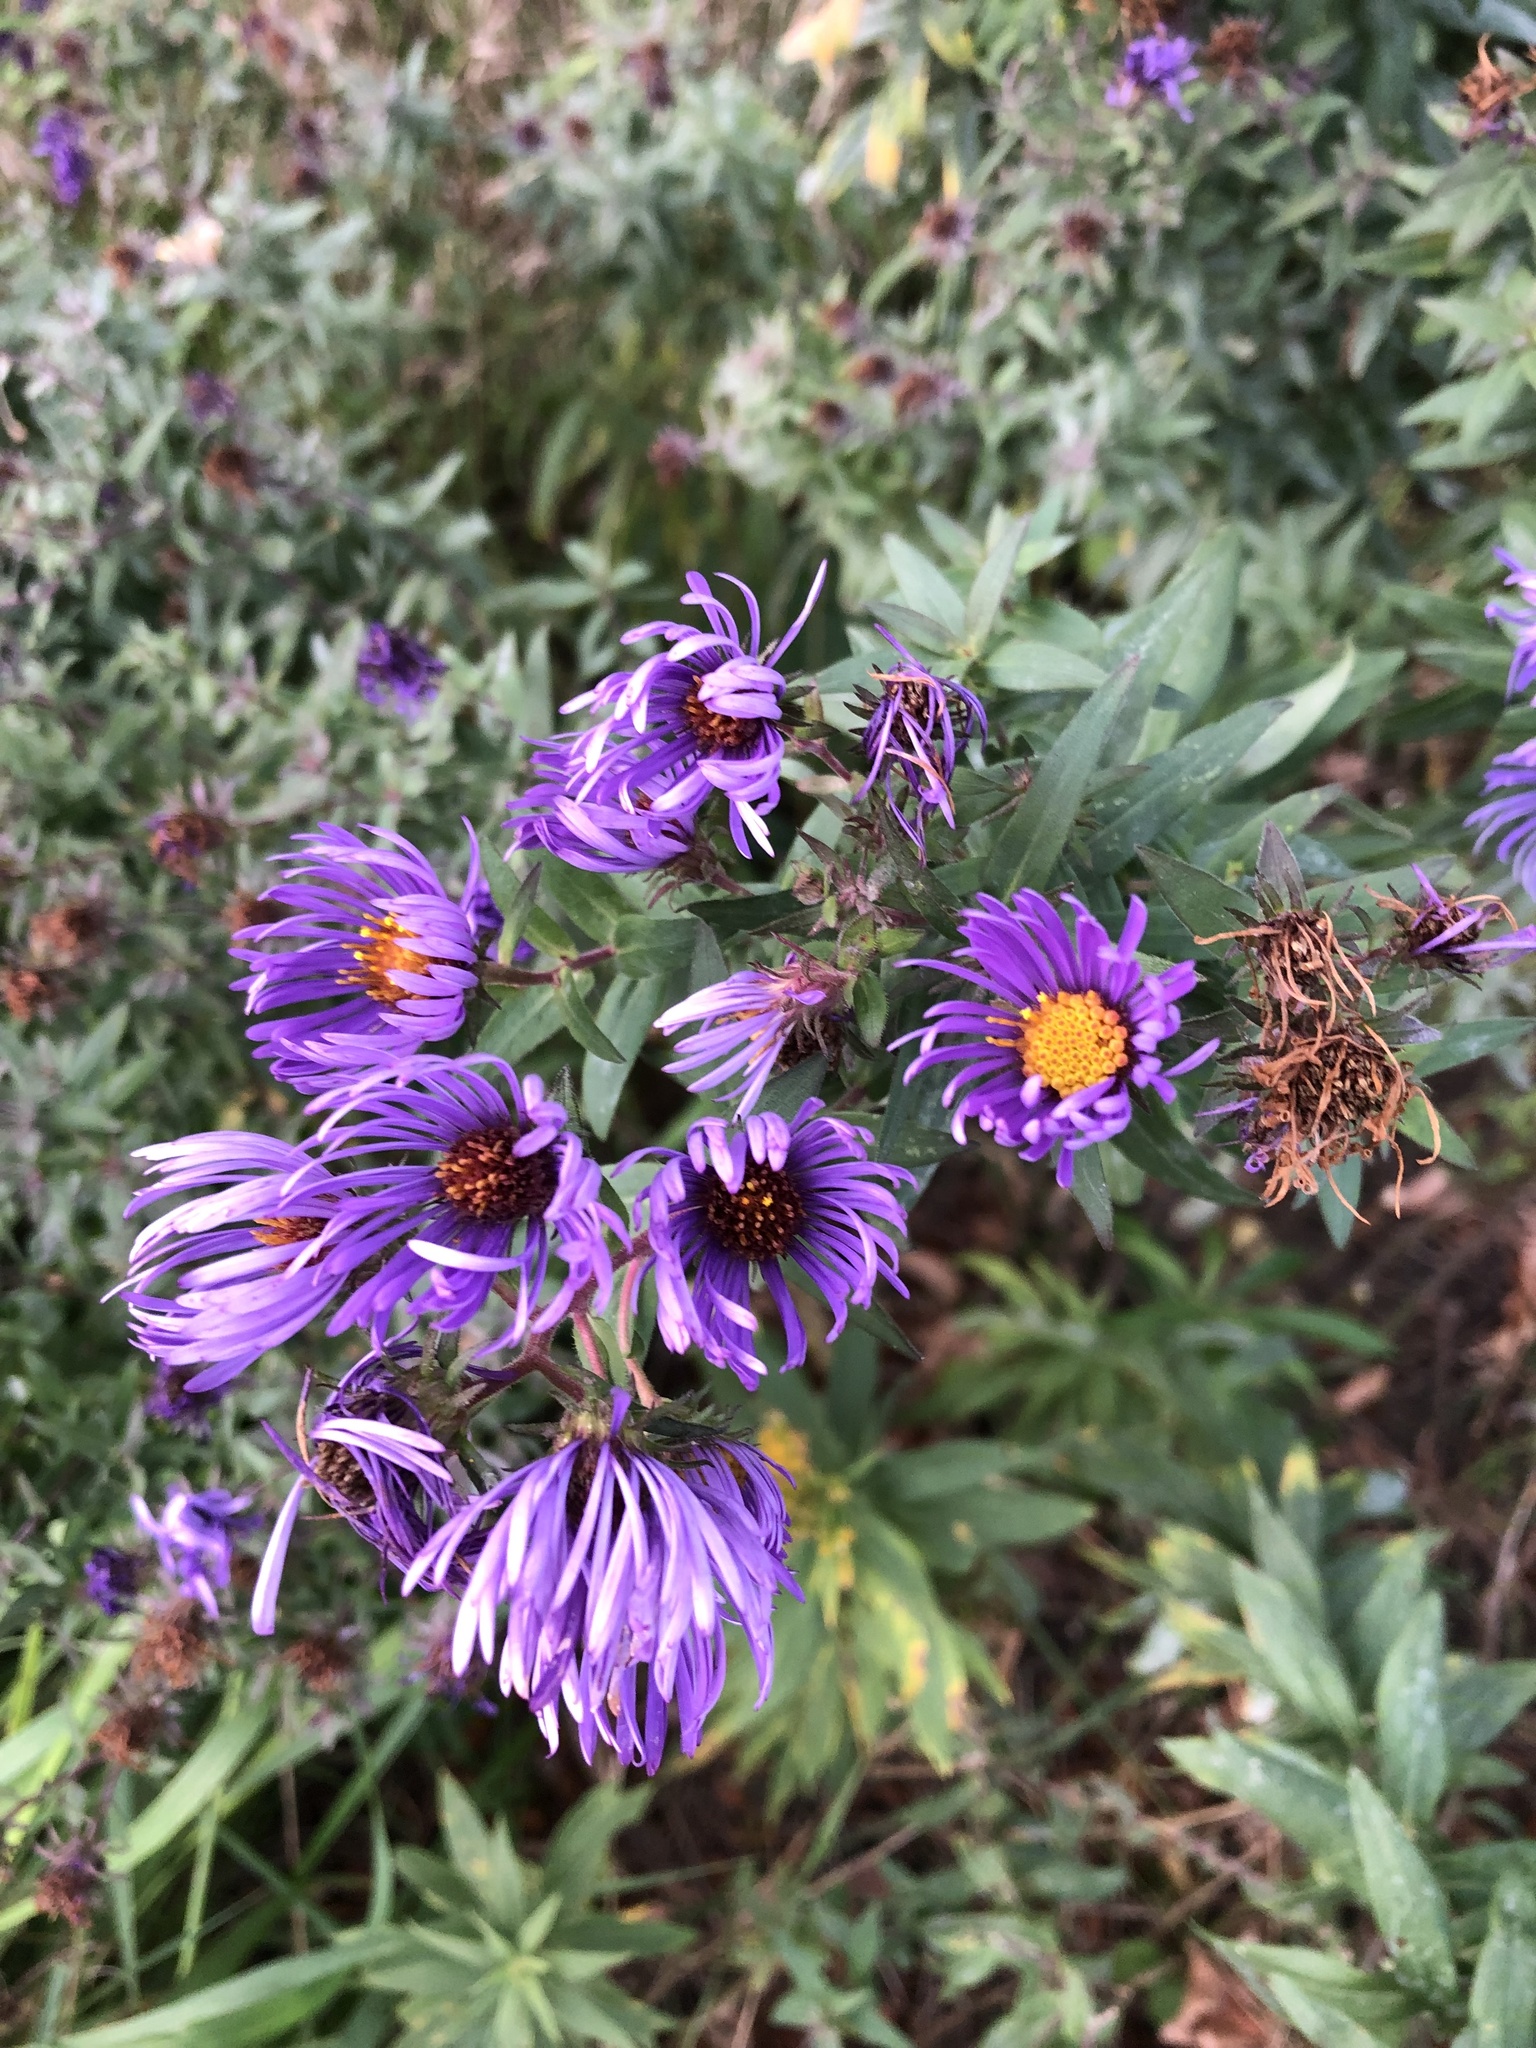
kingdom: Plantae
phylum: Tracheophyta
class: Magnoliopsida
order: Asterales
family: Asteraceae
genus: Symphyotrichum
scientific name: Symphyotrichum novae-angliae
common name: Michaelmas daisy
